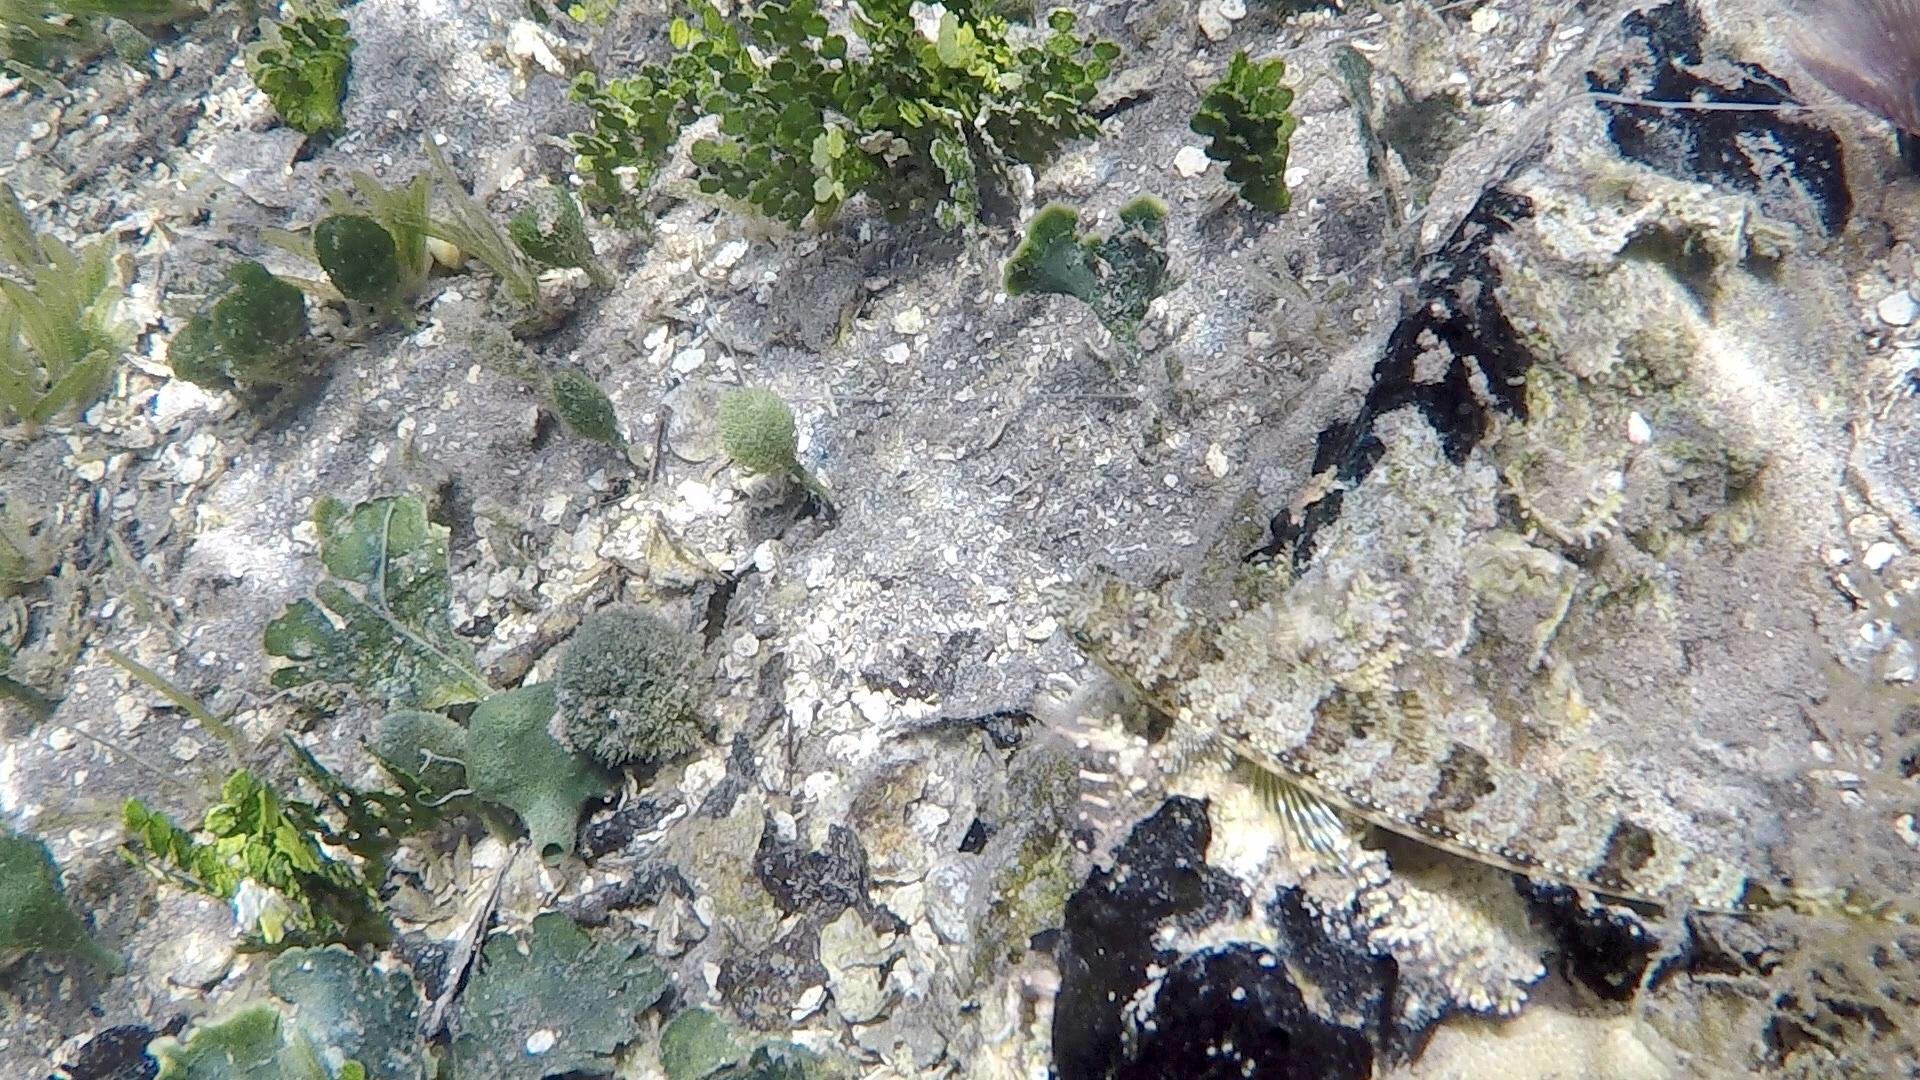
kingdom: Animalia
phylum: Chordata
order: Aulopiformes
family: Synodontidae
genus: Synodus
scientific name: Synodus intermedius
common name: Sand diver
